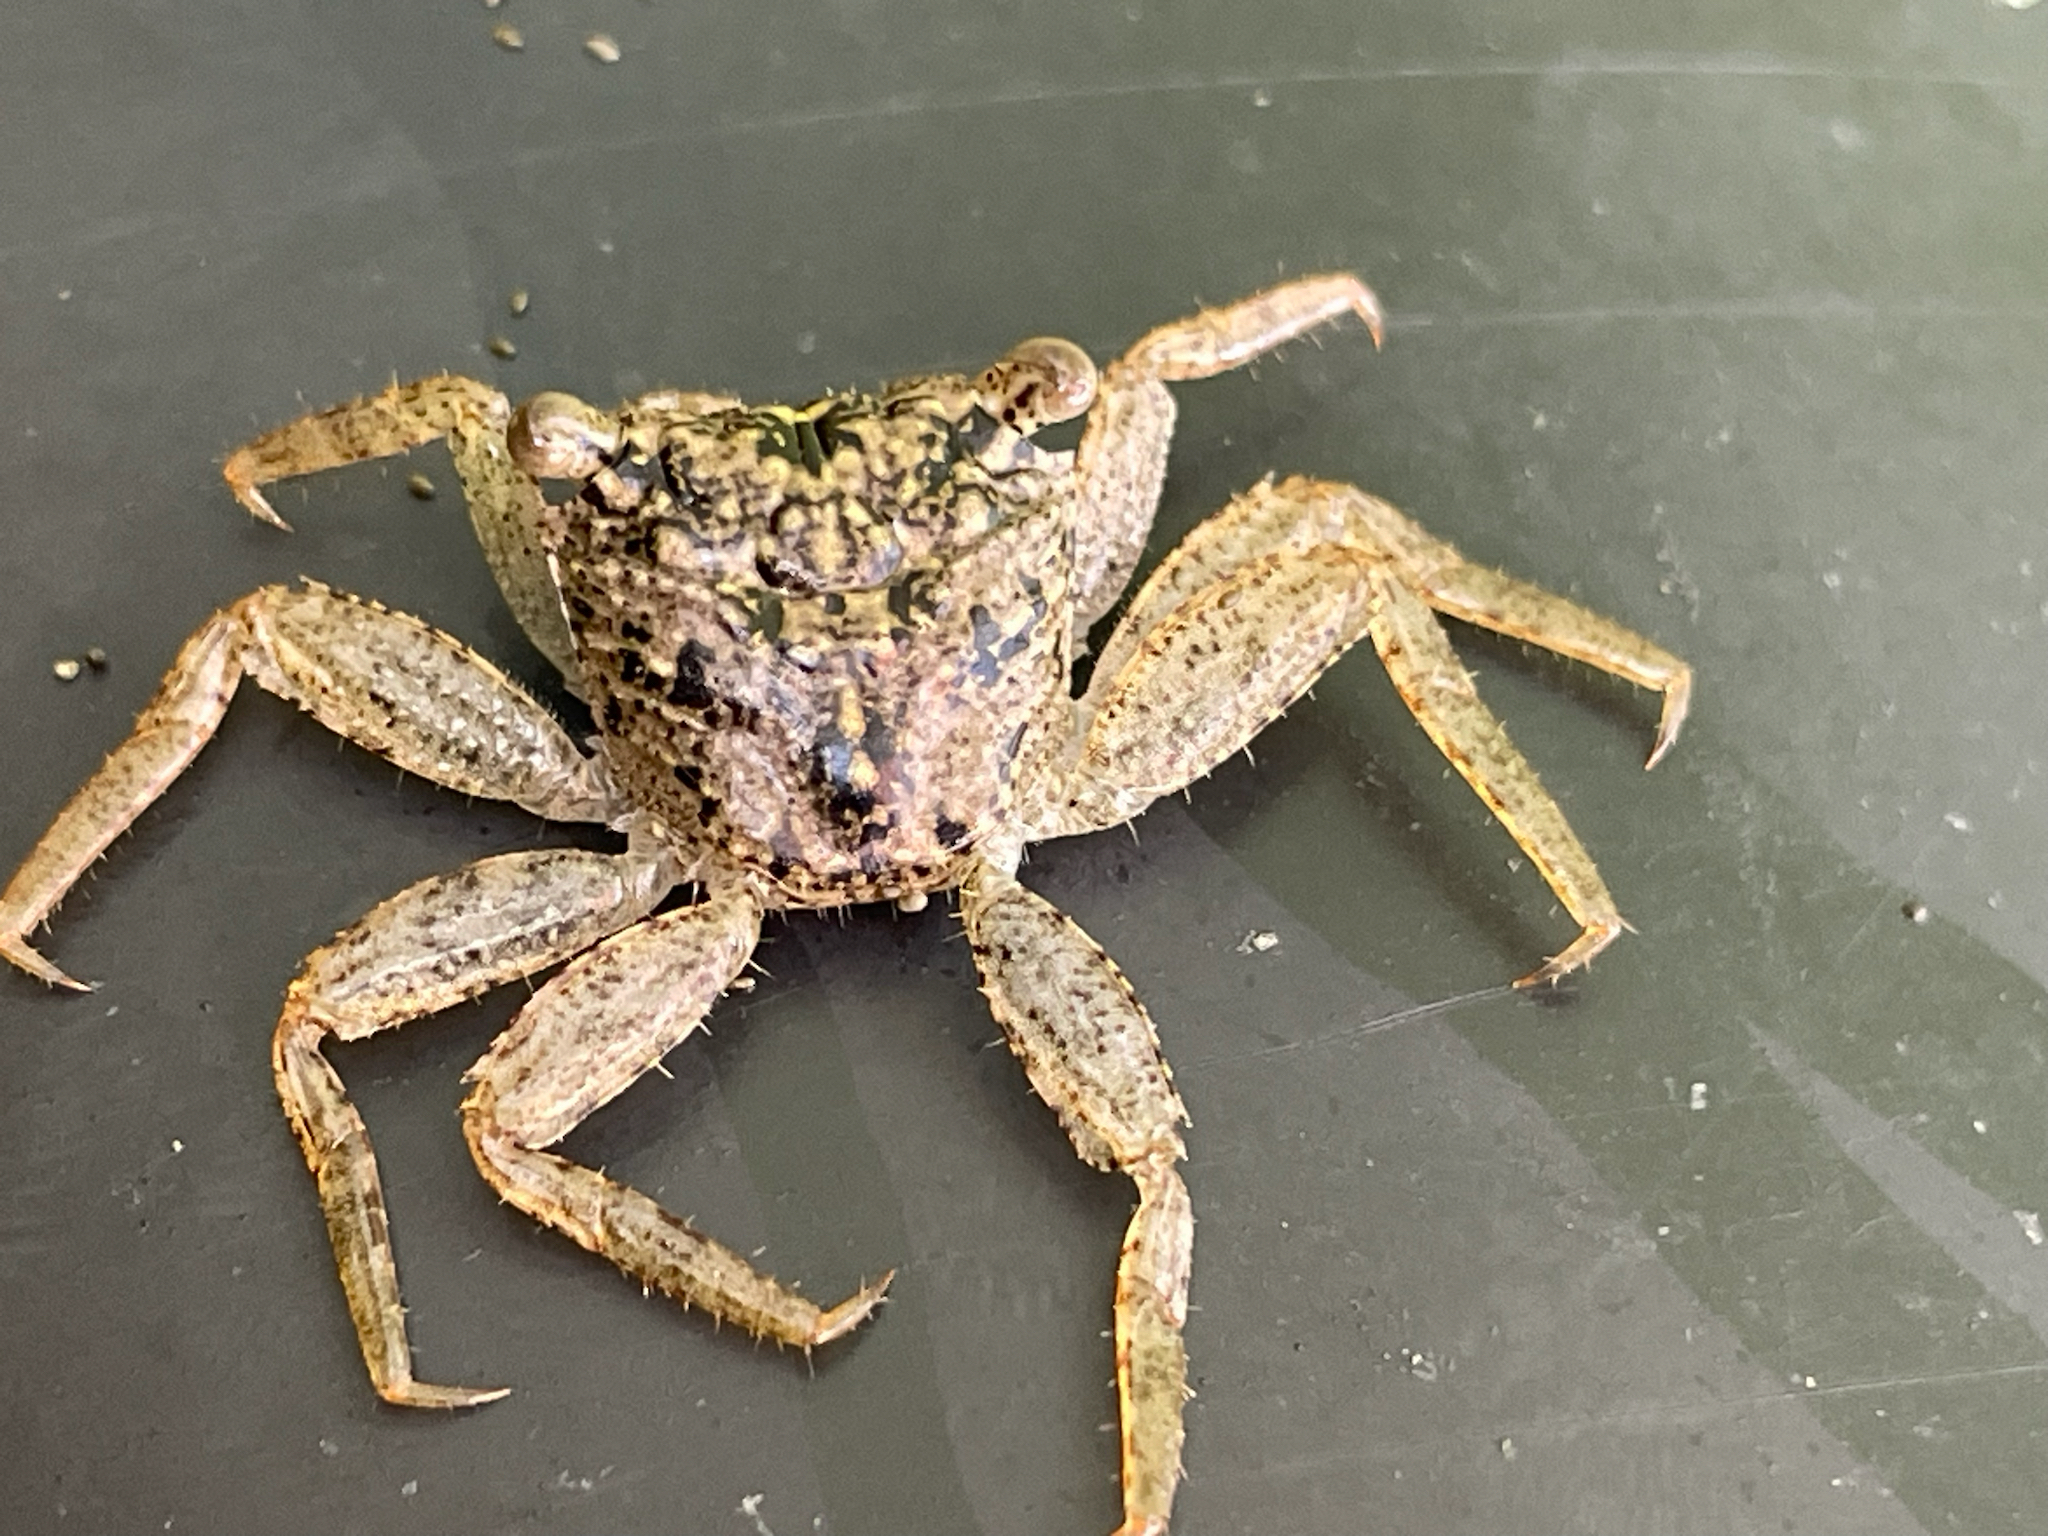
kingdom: Animalia
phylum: Arthropoda
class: Malacostraca
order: Decapoda
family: Sesarmidae
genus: Aratus
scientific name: Aratus pisonii
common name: Mangrove crab
